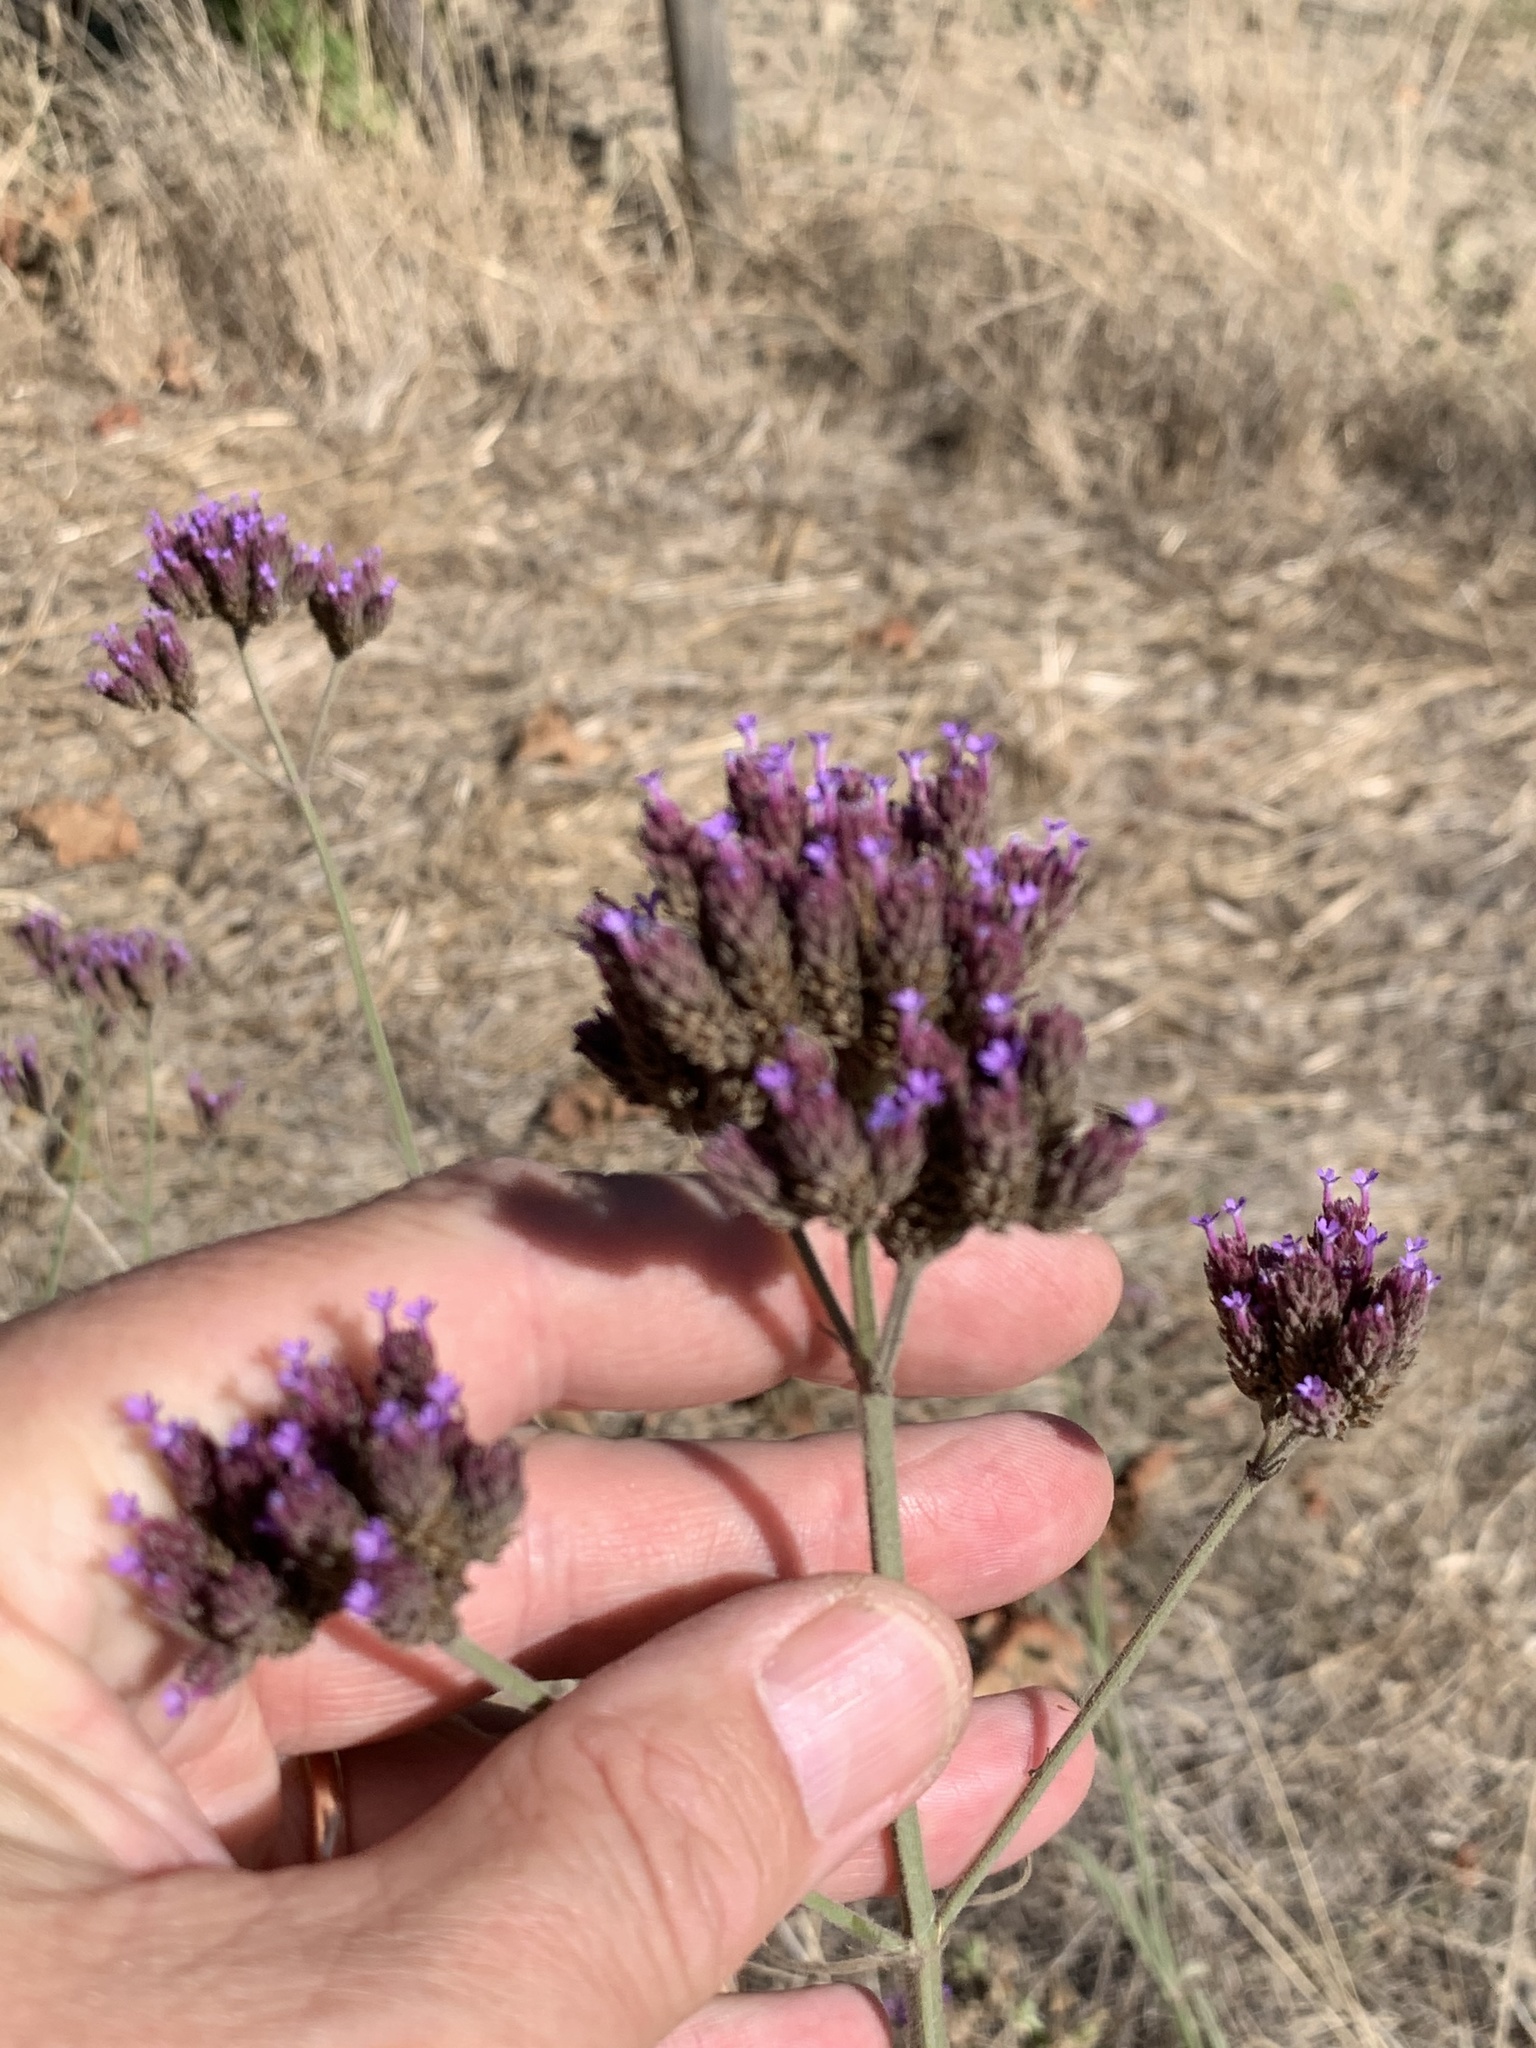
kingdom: Plantae
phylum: Tracheophyta
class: Magnoliopsida
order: Lamiales
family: Verbenaceae
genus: Verbena
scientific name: Verbena bonariensis
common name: Purpletop vervain
